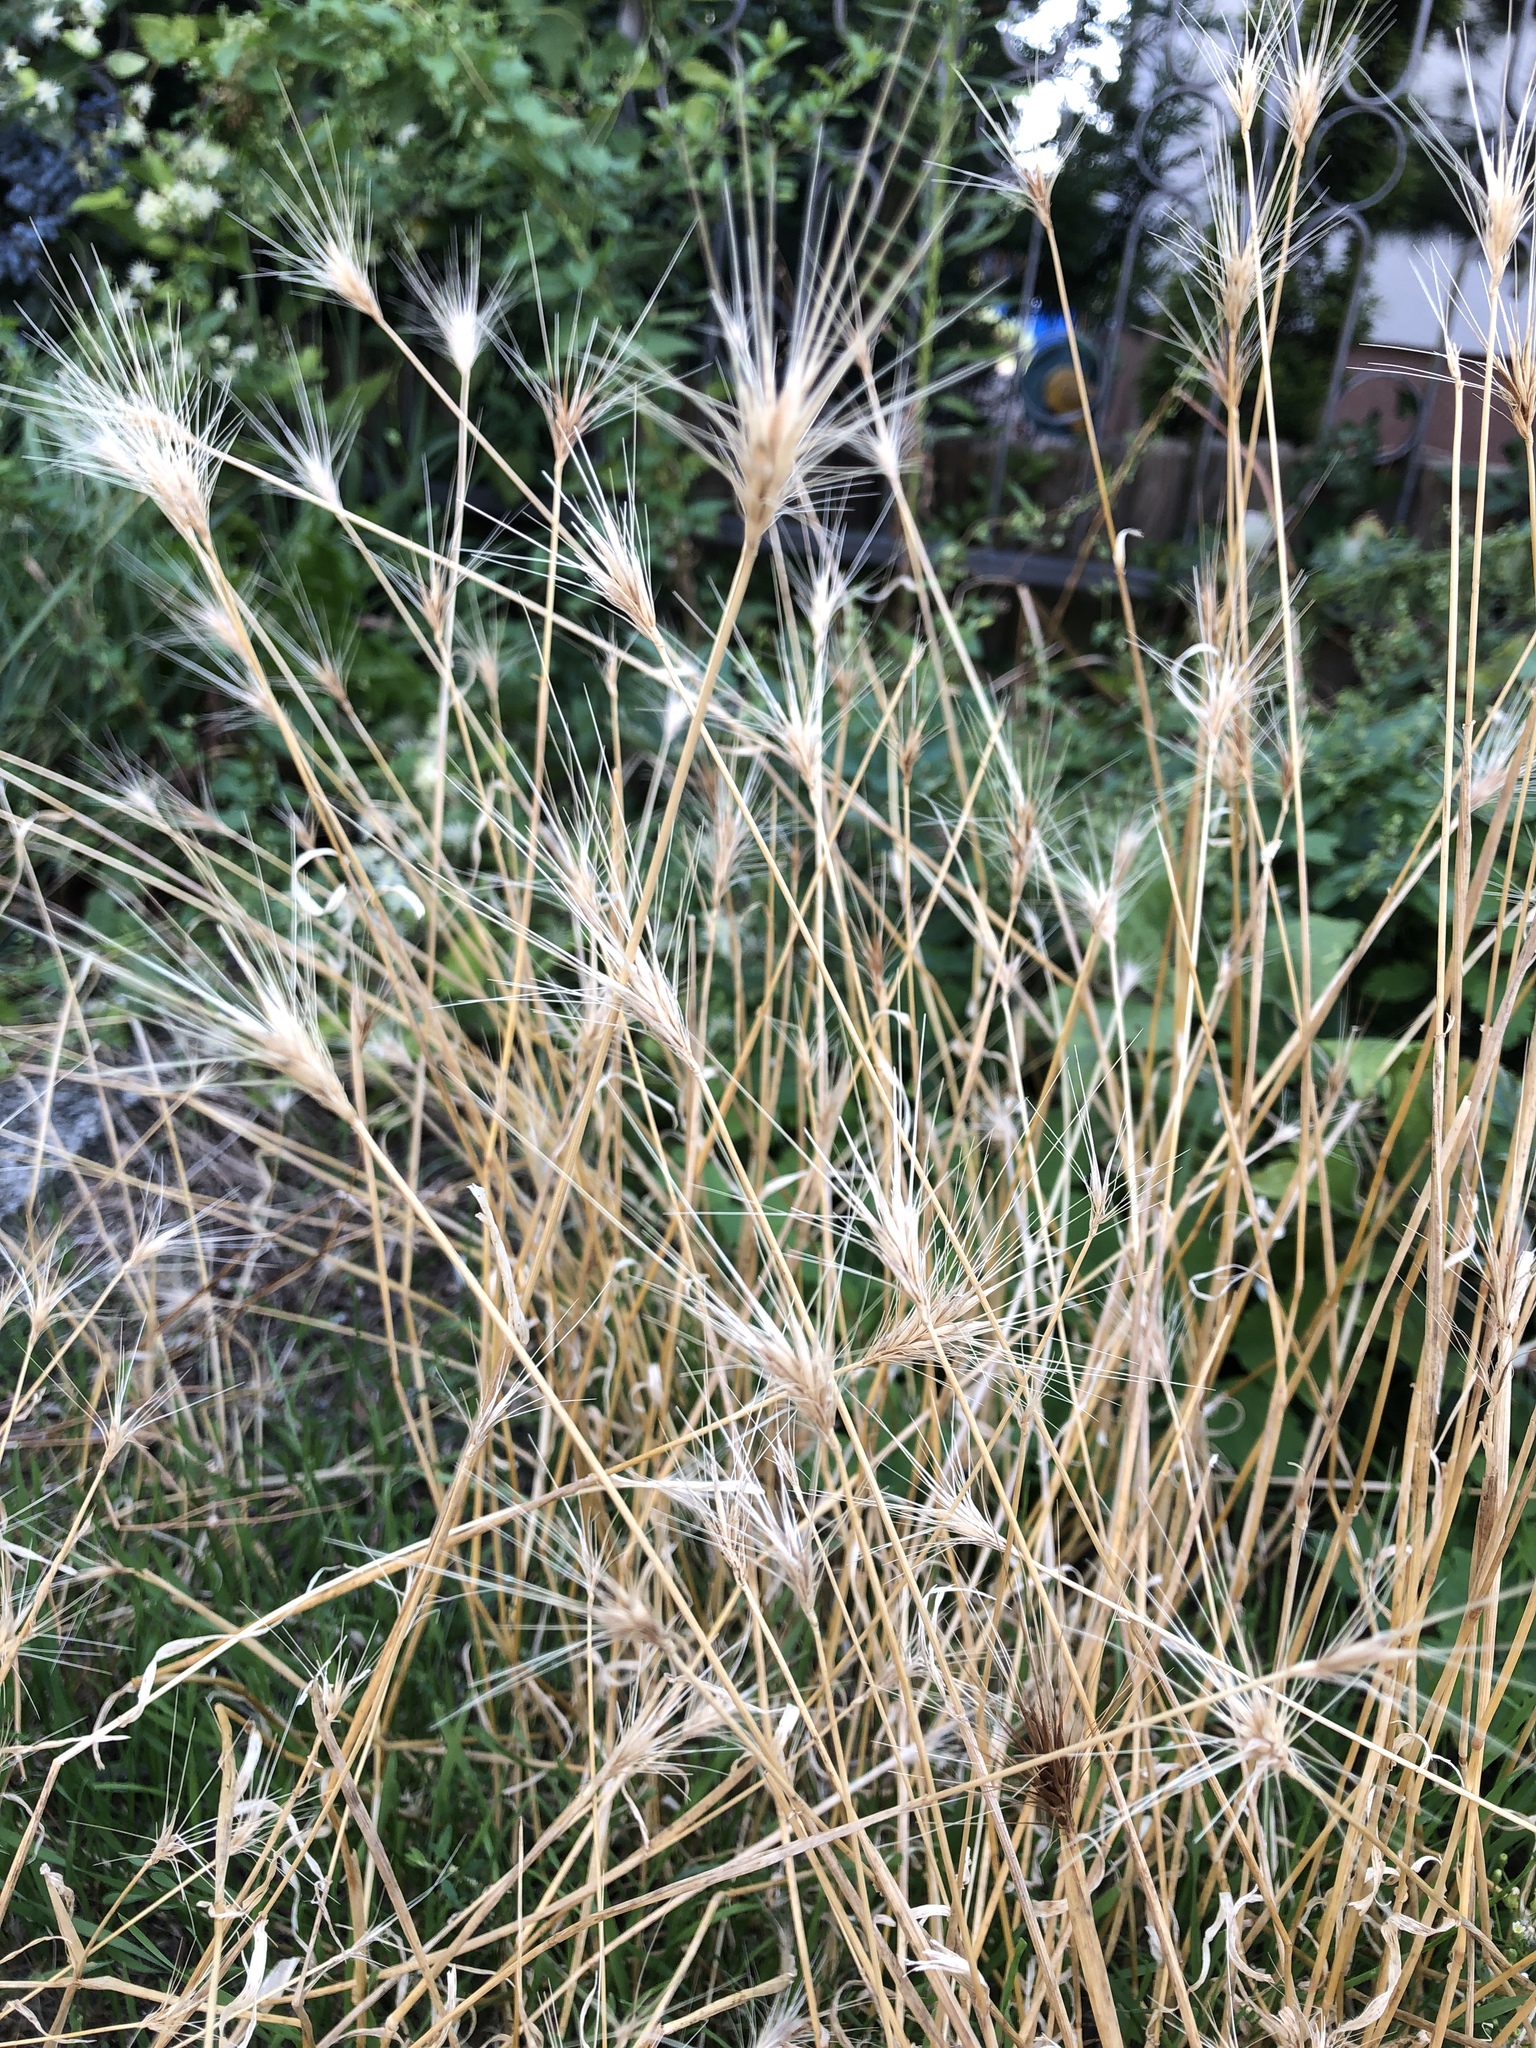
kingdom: Plantae
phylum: Tracheophyta
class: Liliopsida
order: Poales
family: Poaceae
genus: Hordeum
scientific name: Hordeum murinum
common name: Wall barley
